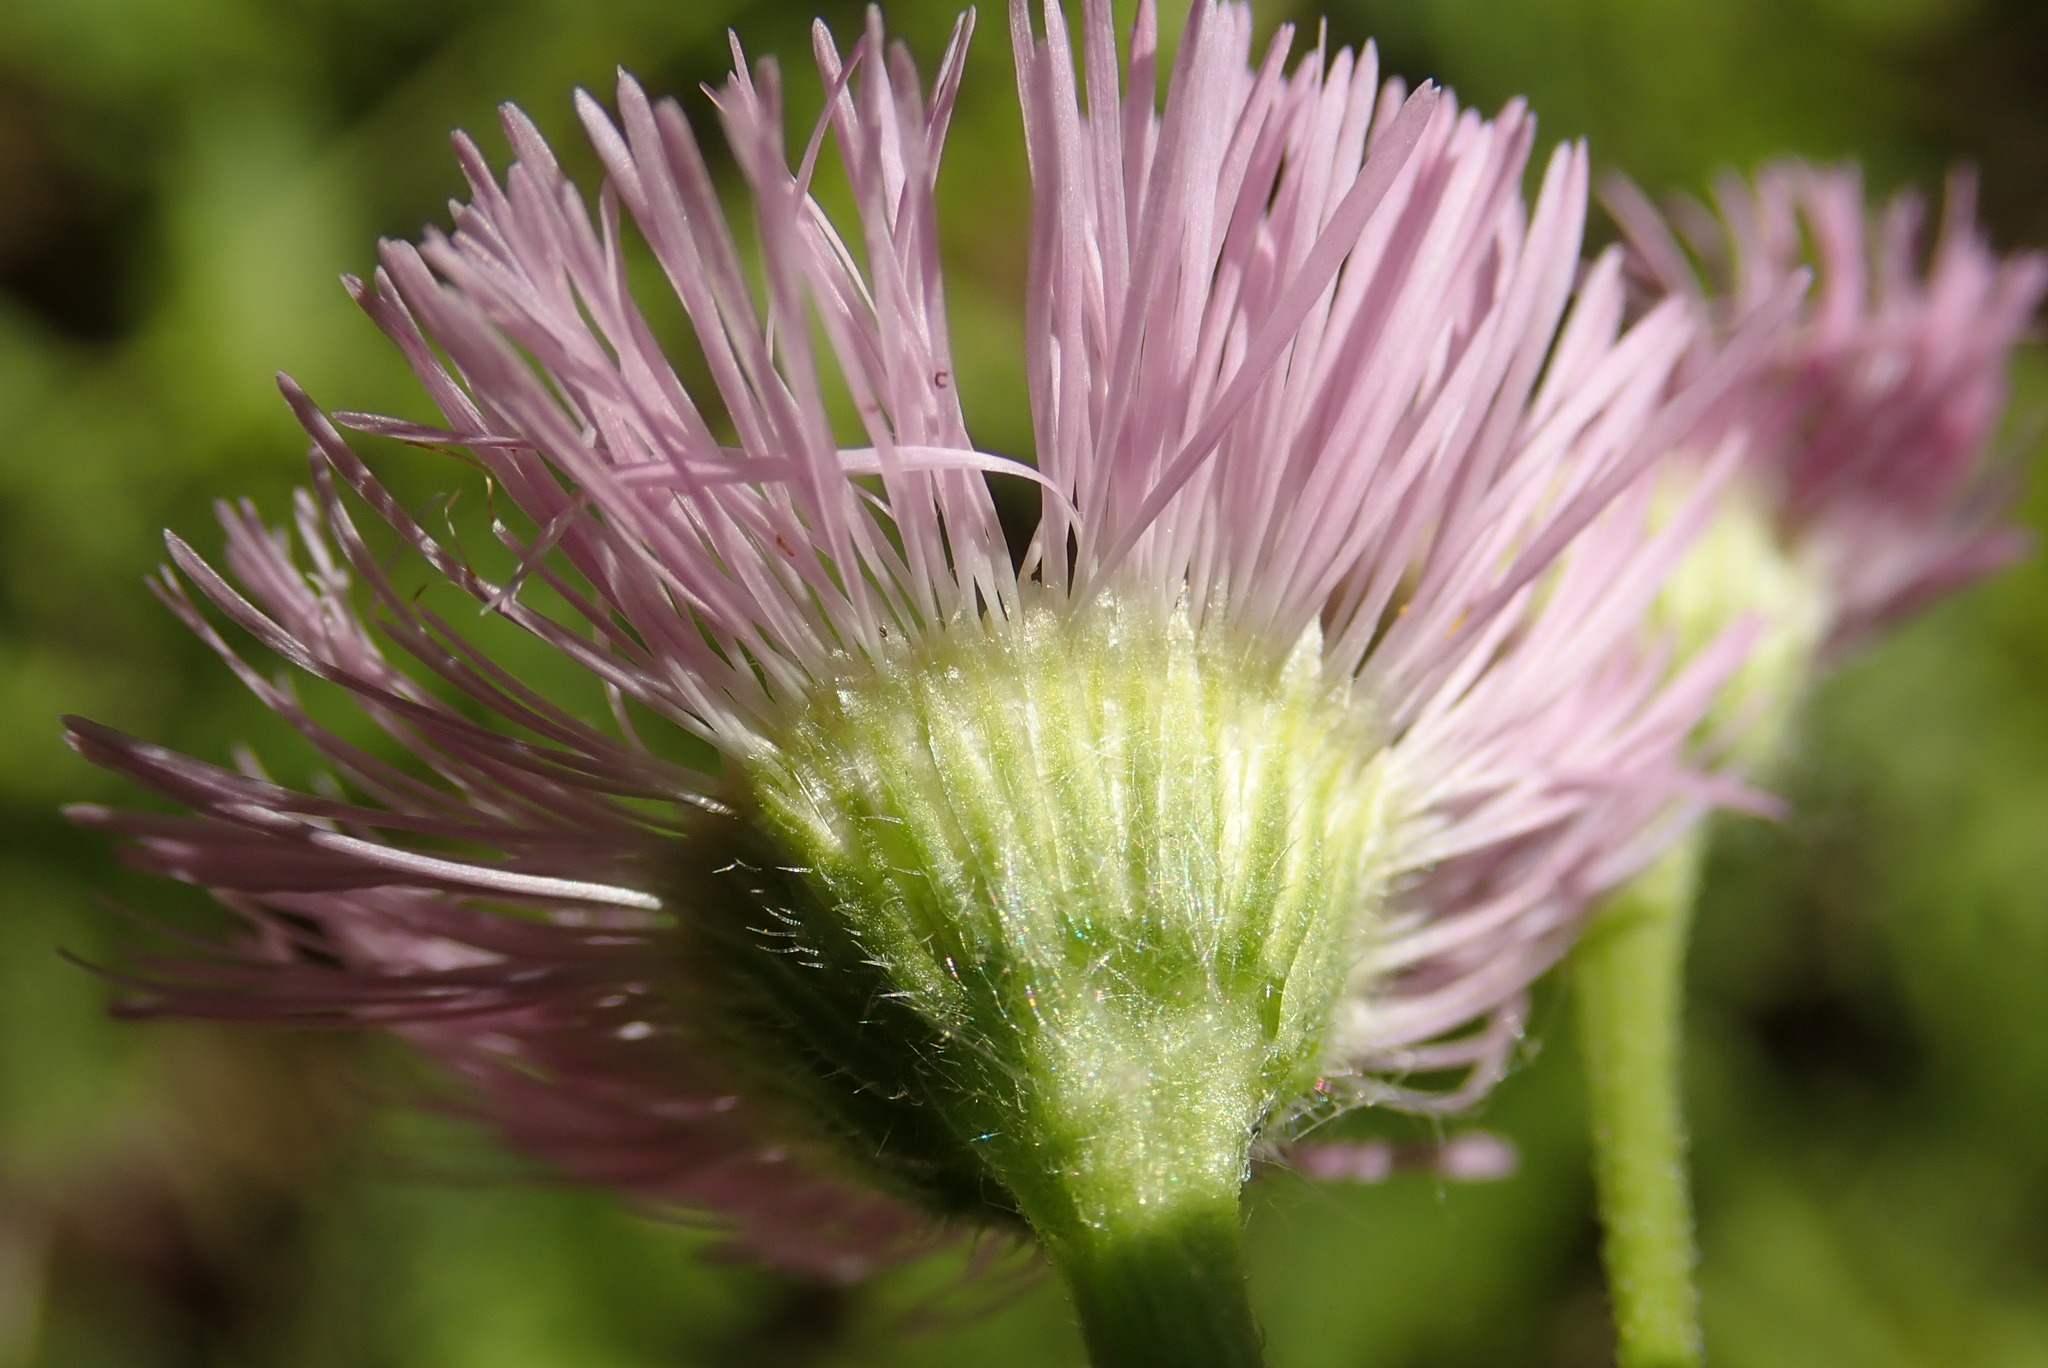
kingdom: Plantae
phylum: Tracheophyta
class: Magnoliopsida
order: Asterales
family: Asteraceae
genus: Erigeron
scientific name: Erigeron philadelphicus
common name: Robin's-plantain
